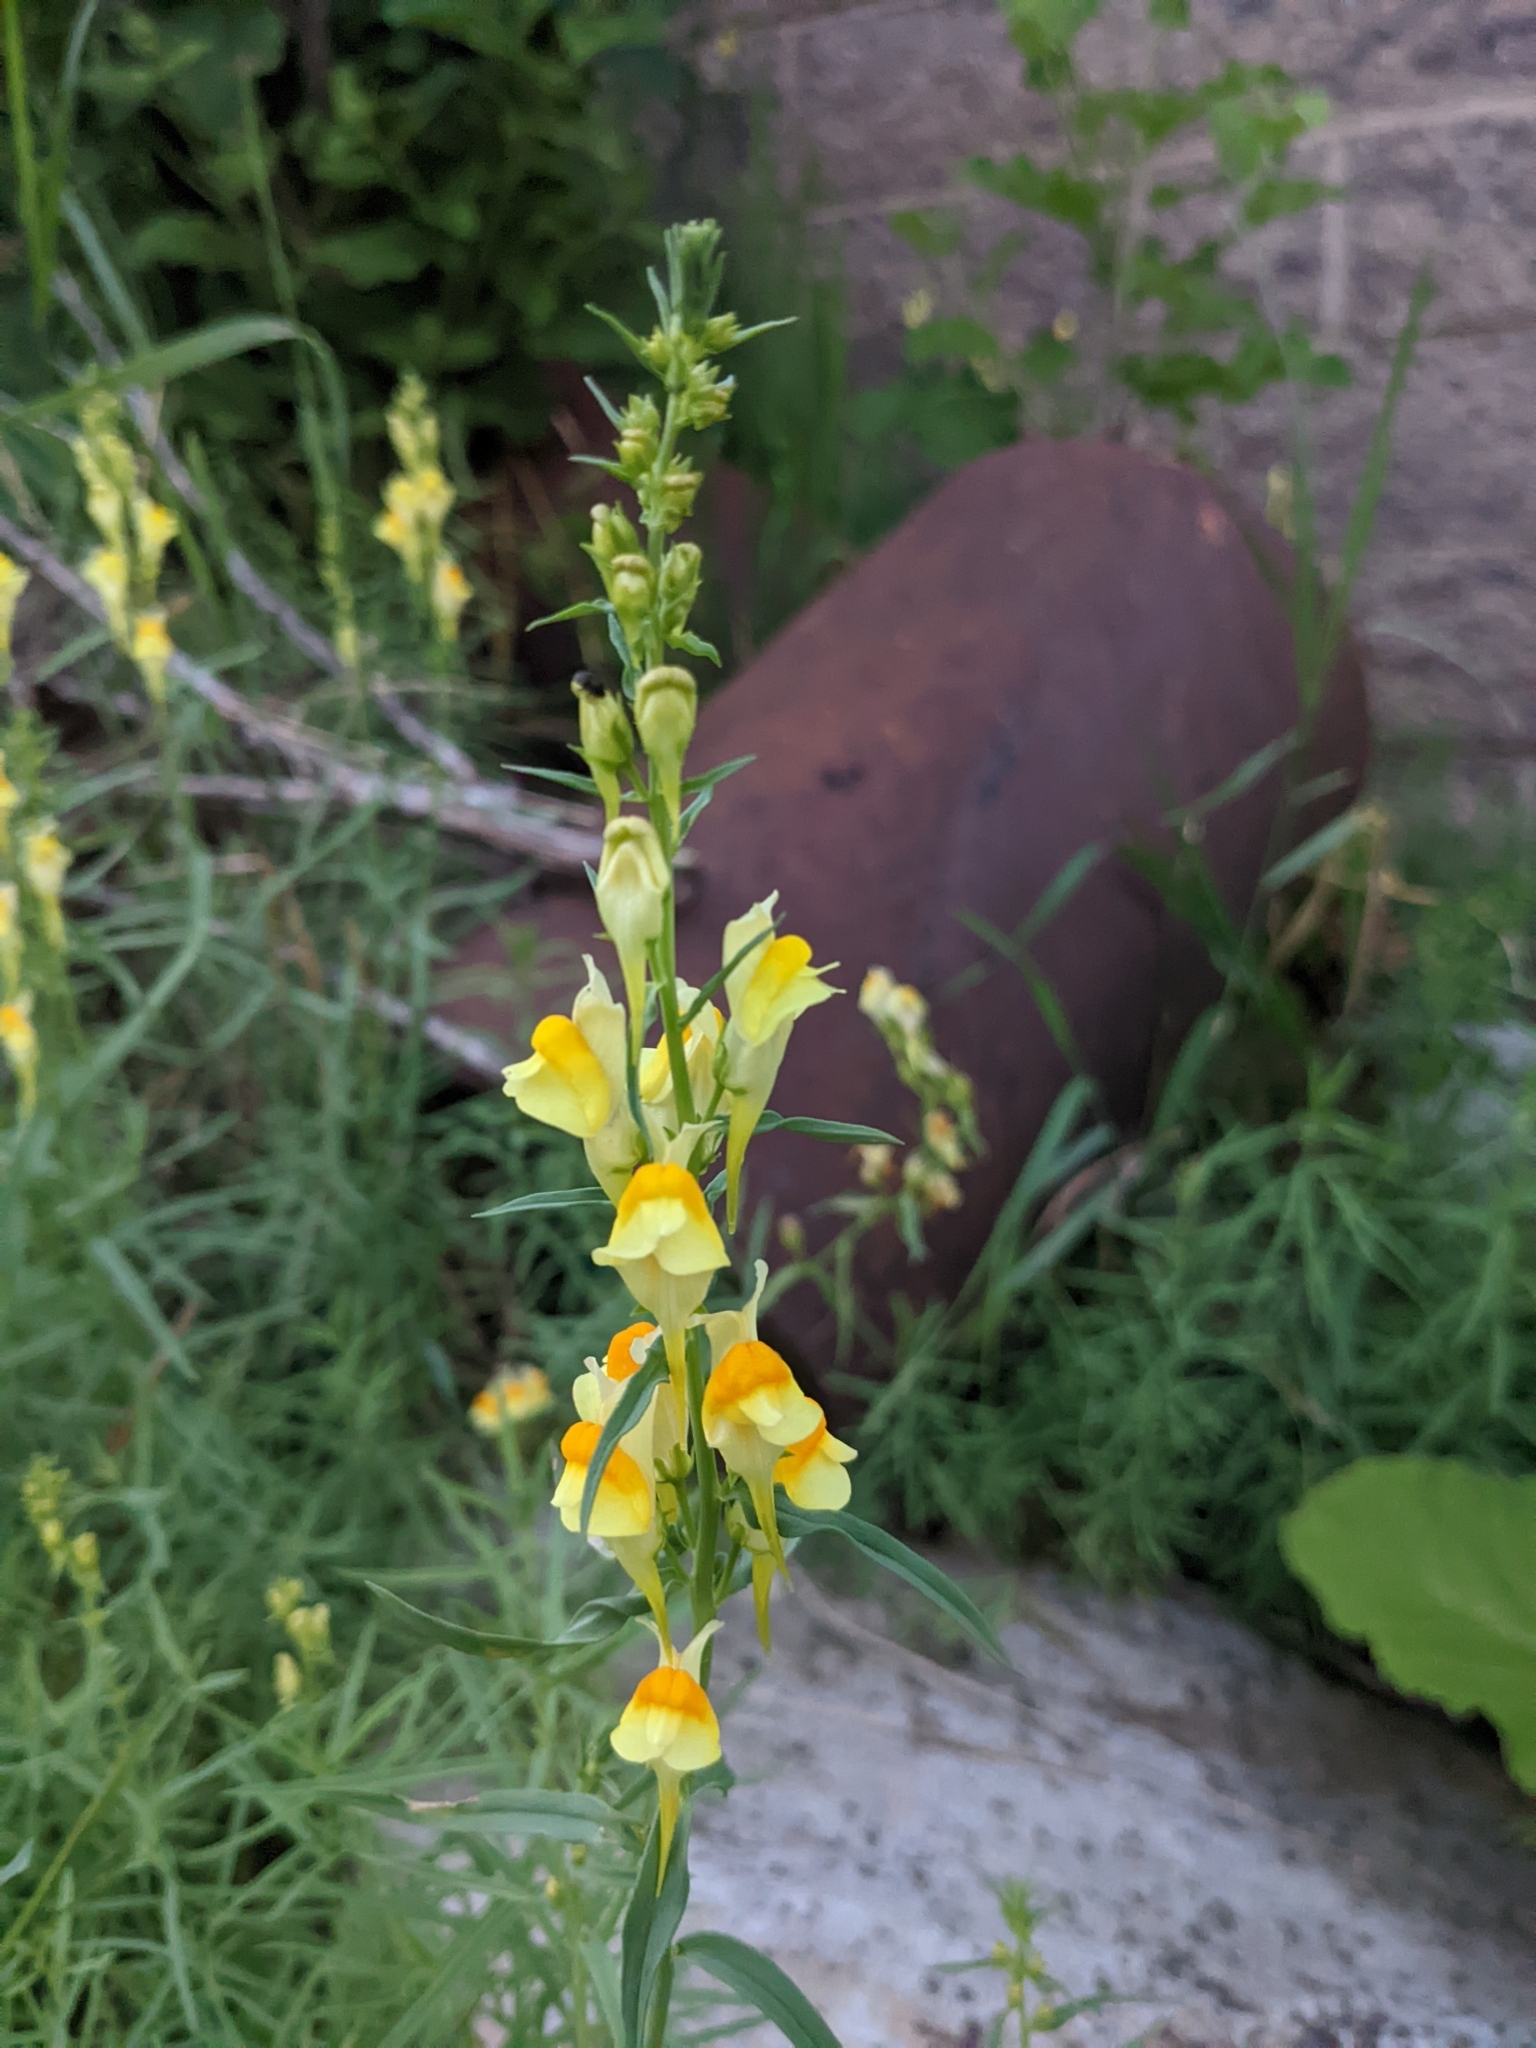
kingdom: Plantae
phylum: Tracheophyta
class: Magnoliopsida
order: Lamiales
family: Plantaginaceae
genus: Linaria
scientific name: Linaria vulgaris
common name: Butter and eggs
